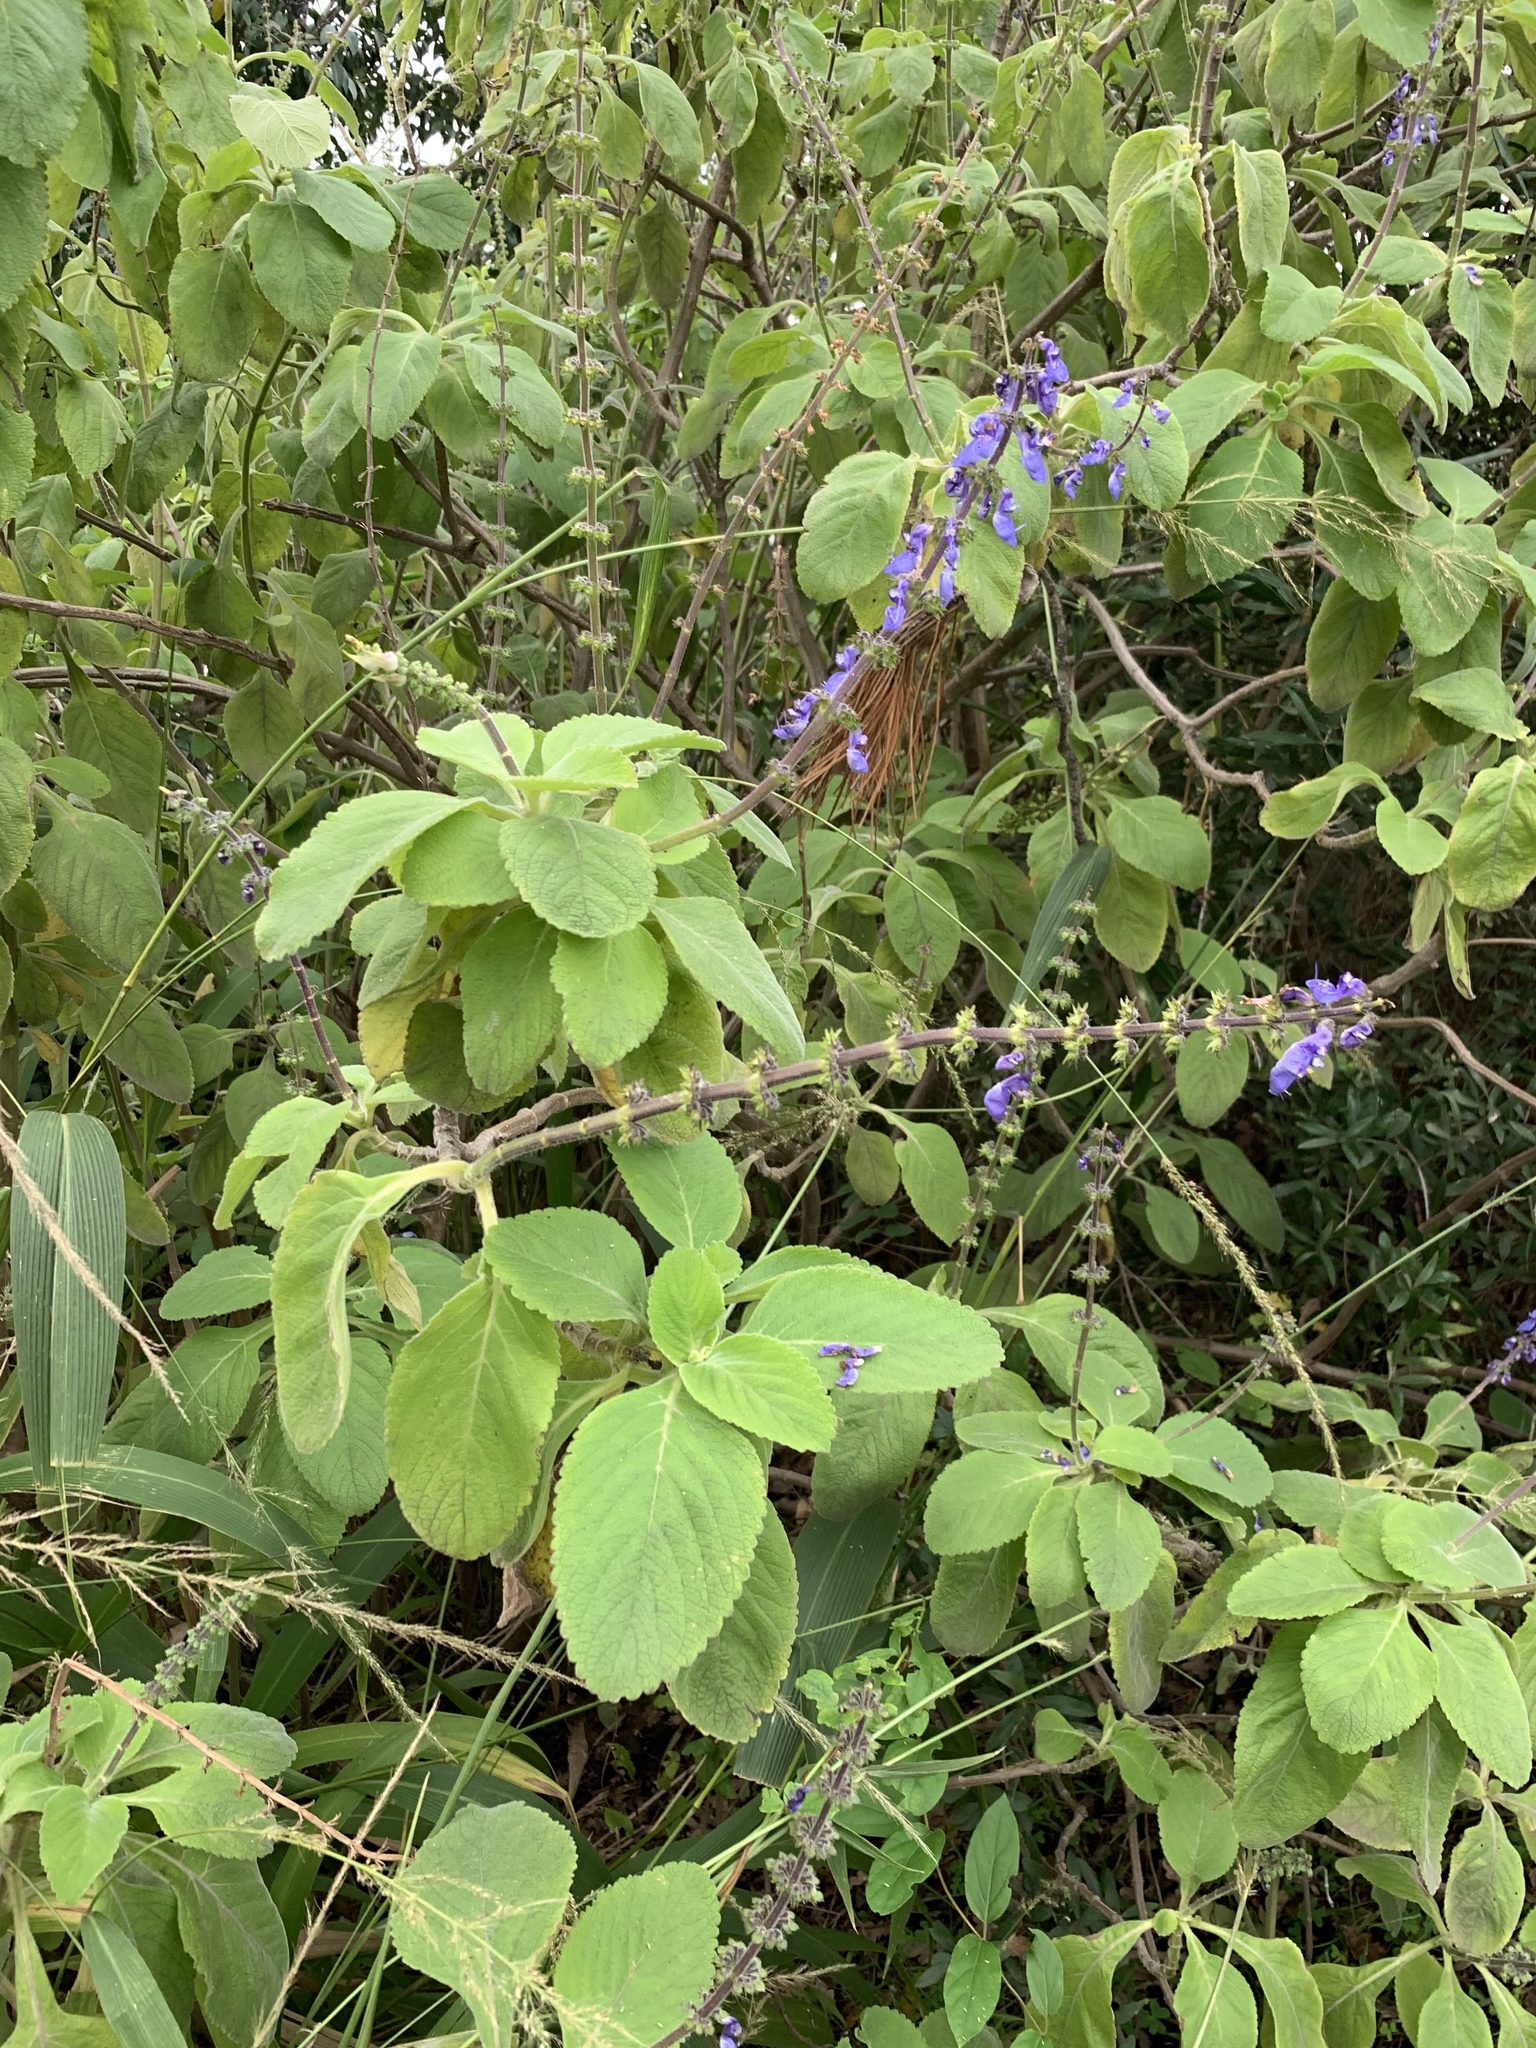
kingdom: Plantae
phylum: Tracheophyta
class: Magnoliopsida
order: Lamiales
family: Lamiaceae
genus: Coleus
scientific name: Coleus barbatus
